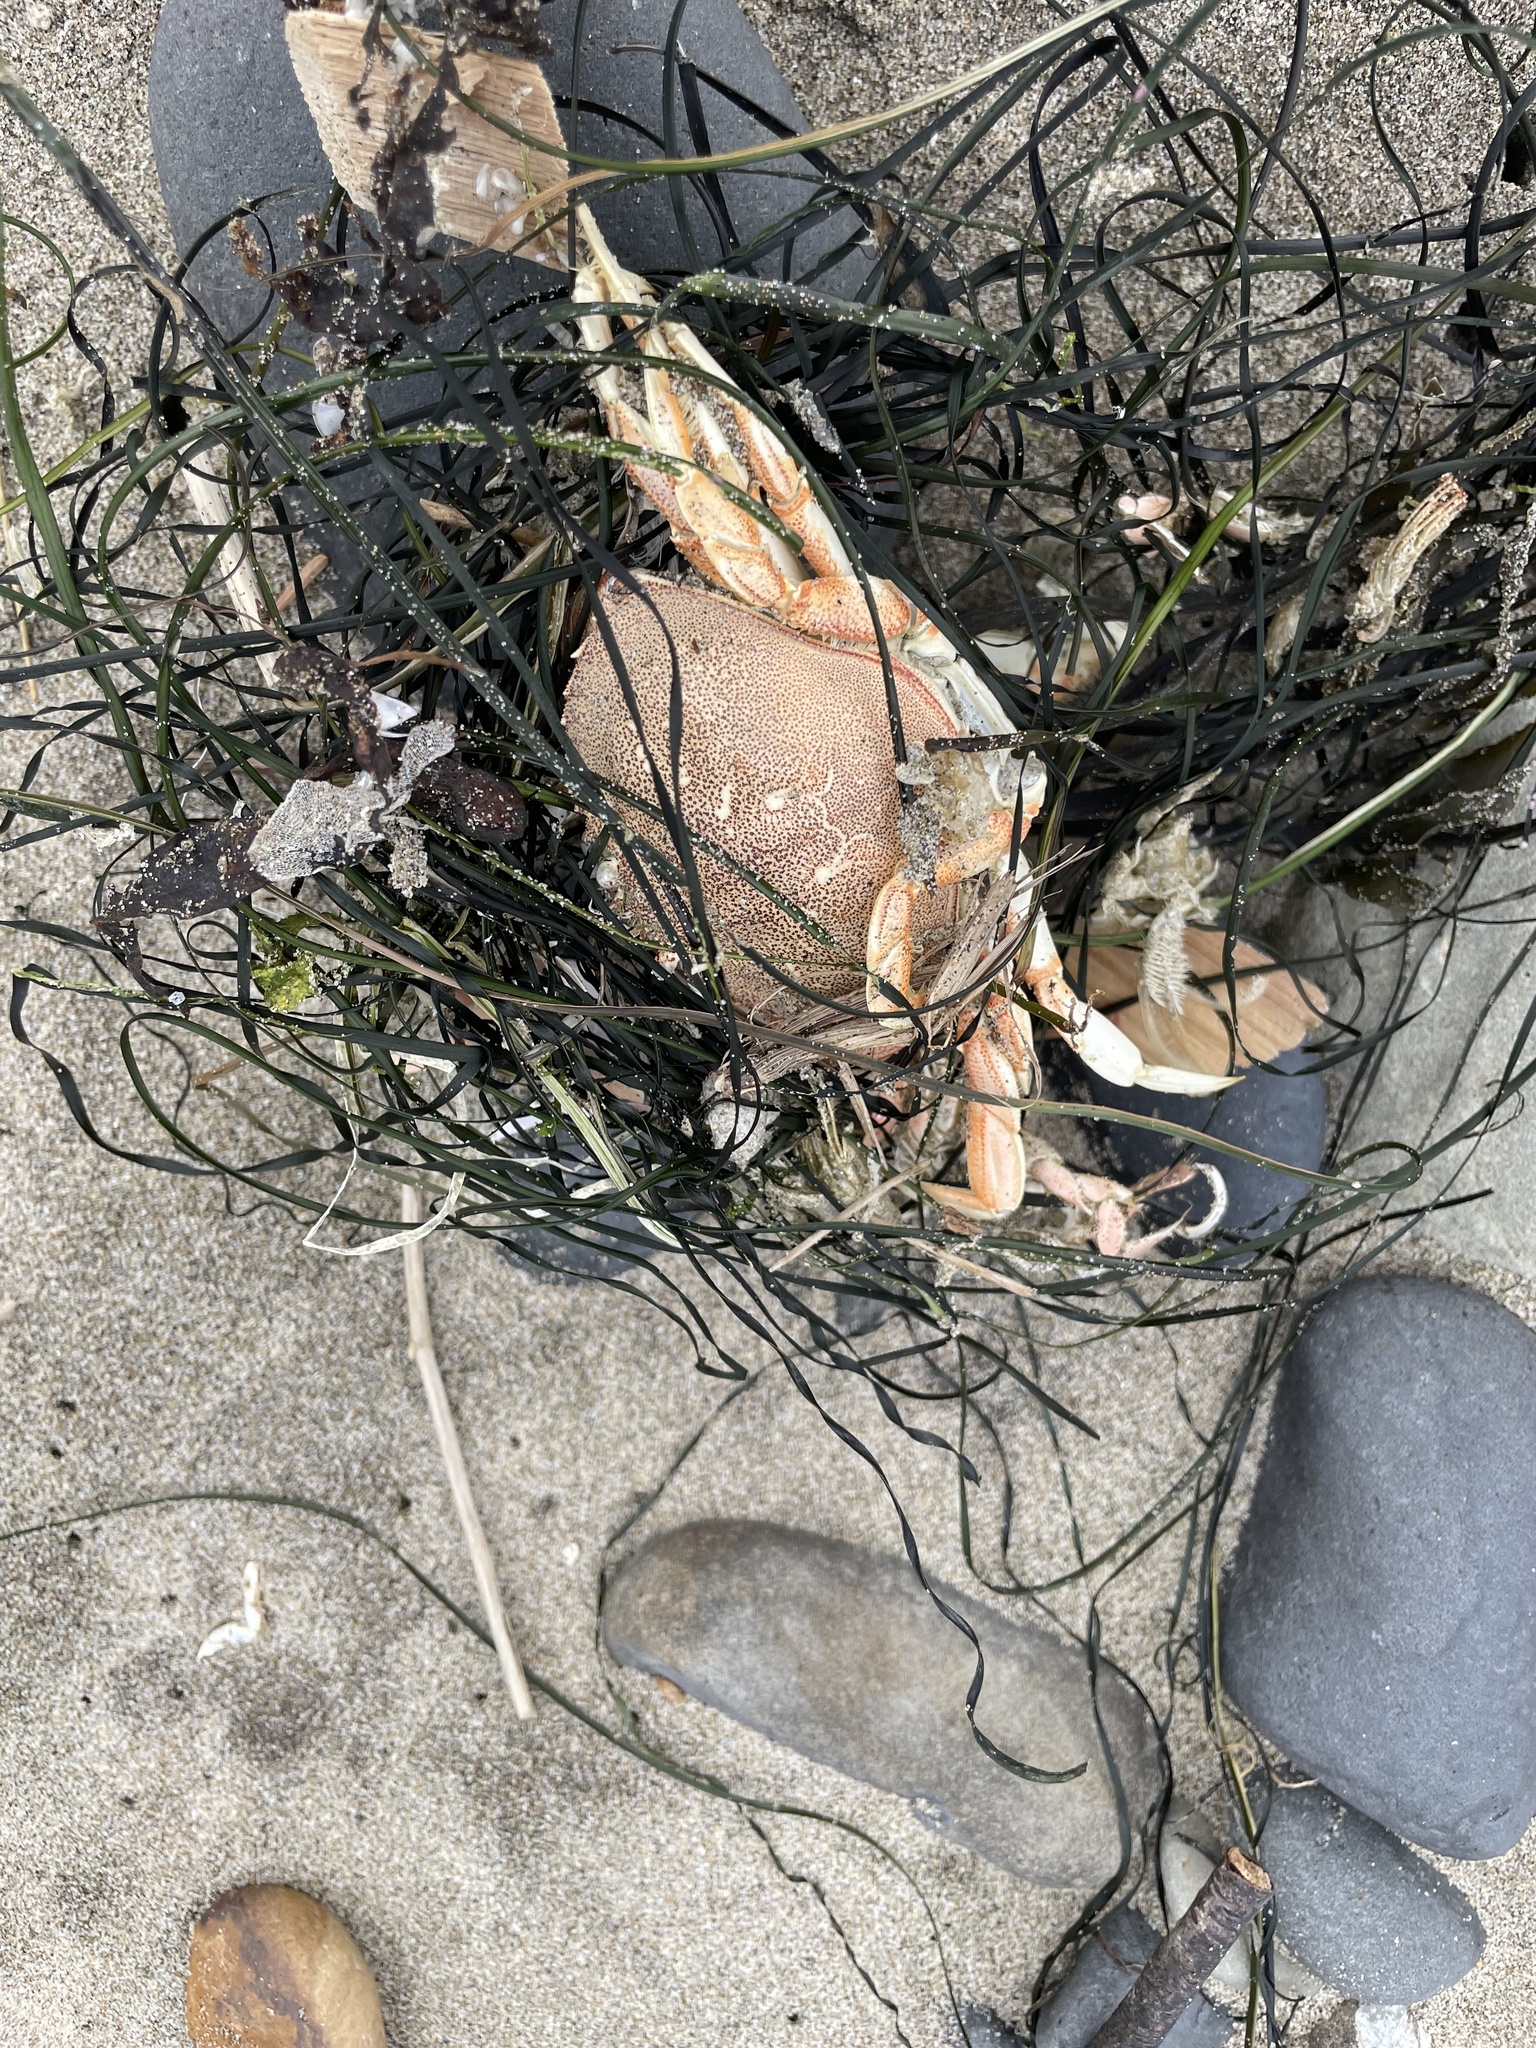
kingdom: Animalia
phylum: Arthropoda
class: Malacostraca
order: Decapoda
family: Cancridae
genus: Metacarcinus
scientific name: Metacarcinus magister
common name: Californian crab
